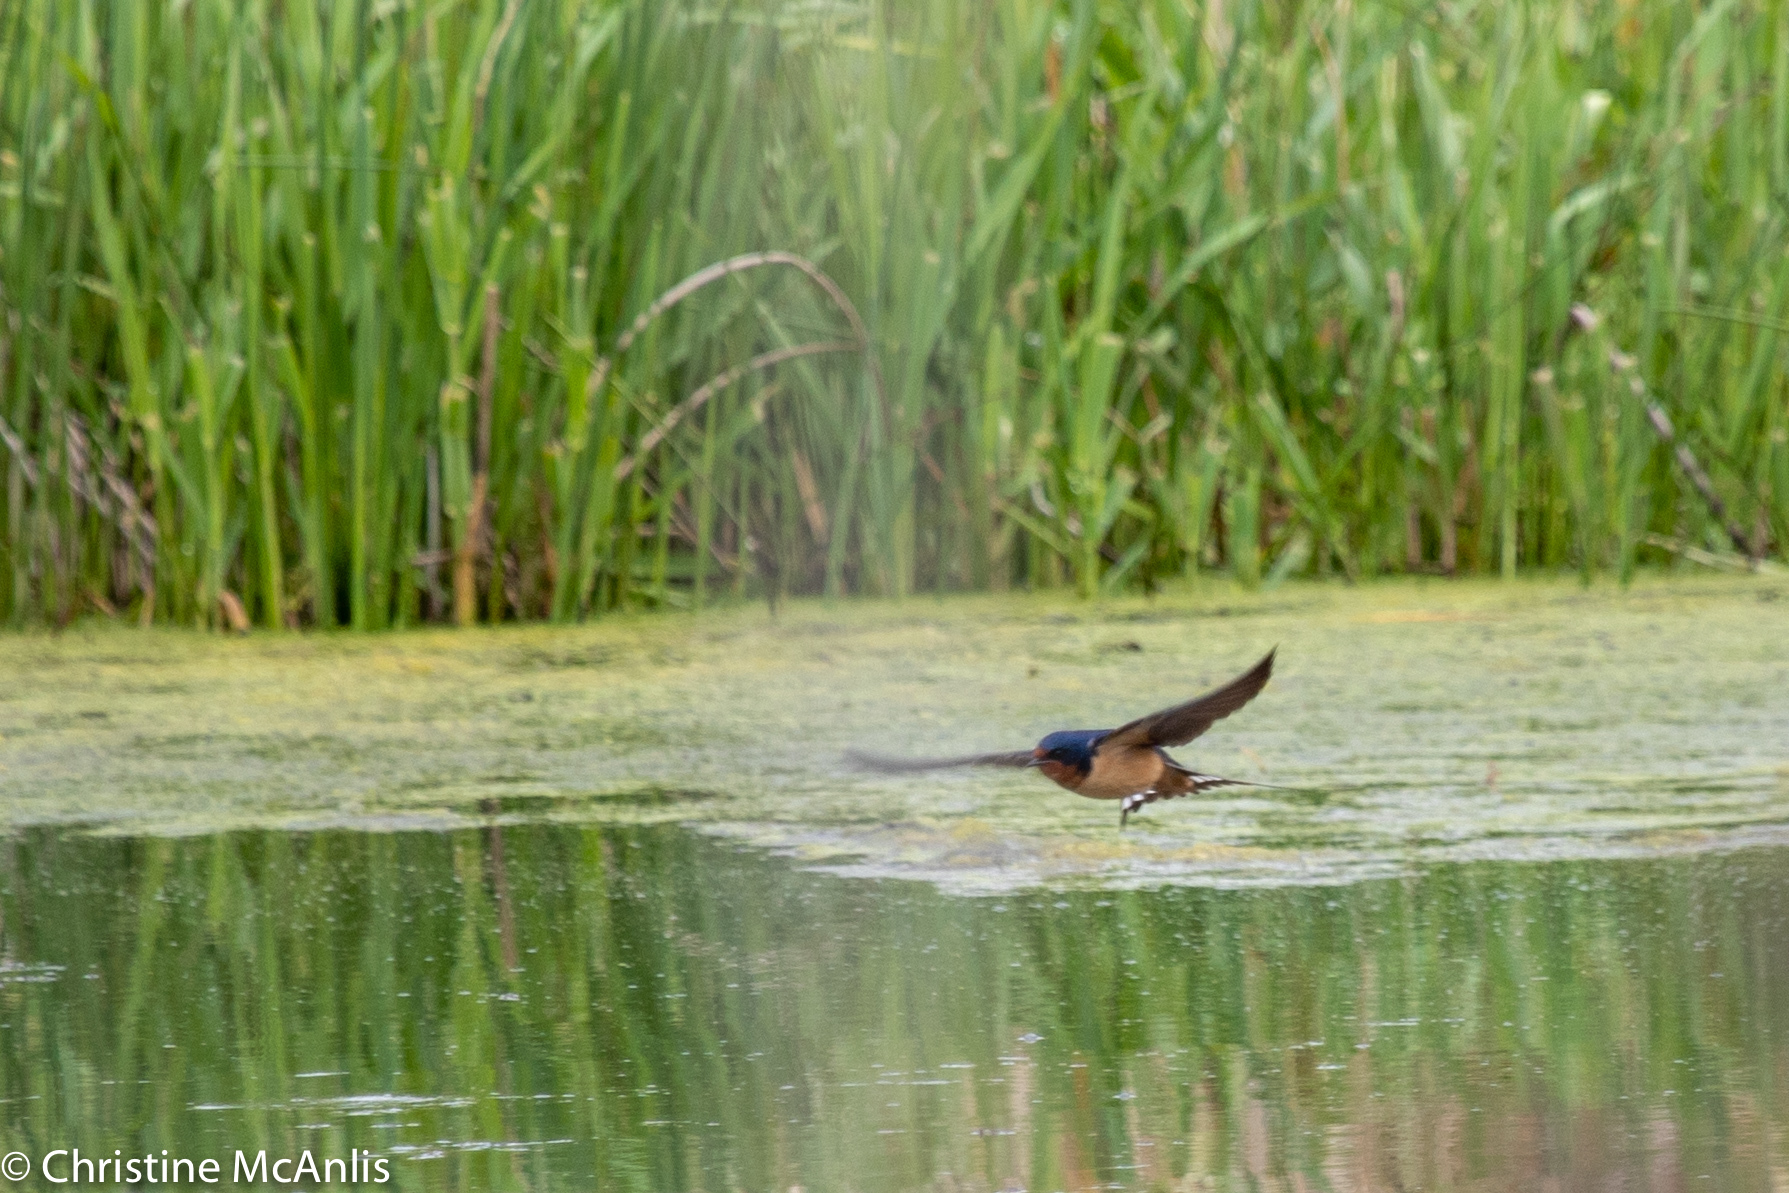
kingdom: Animalia
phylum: Chordata
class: Aves
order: Passeriformes
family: Hirundinidae
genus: Hirundo
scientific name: Hirundo rustica
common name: Barn swallow
